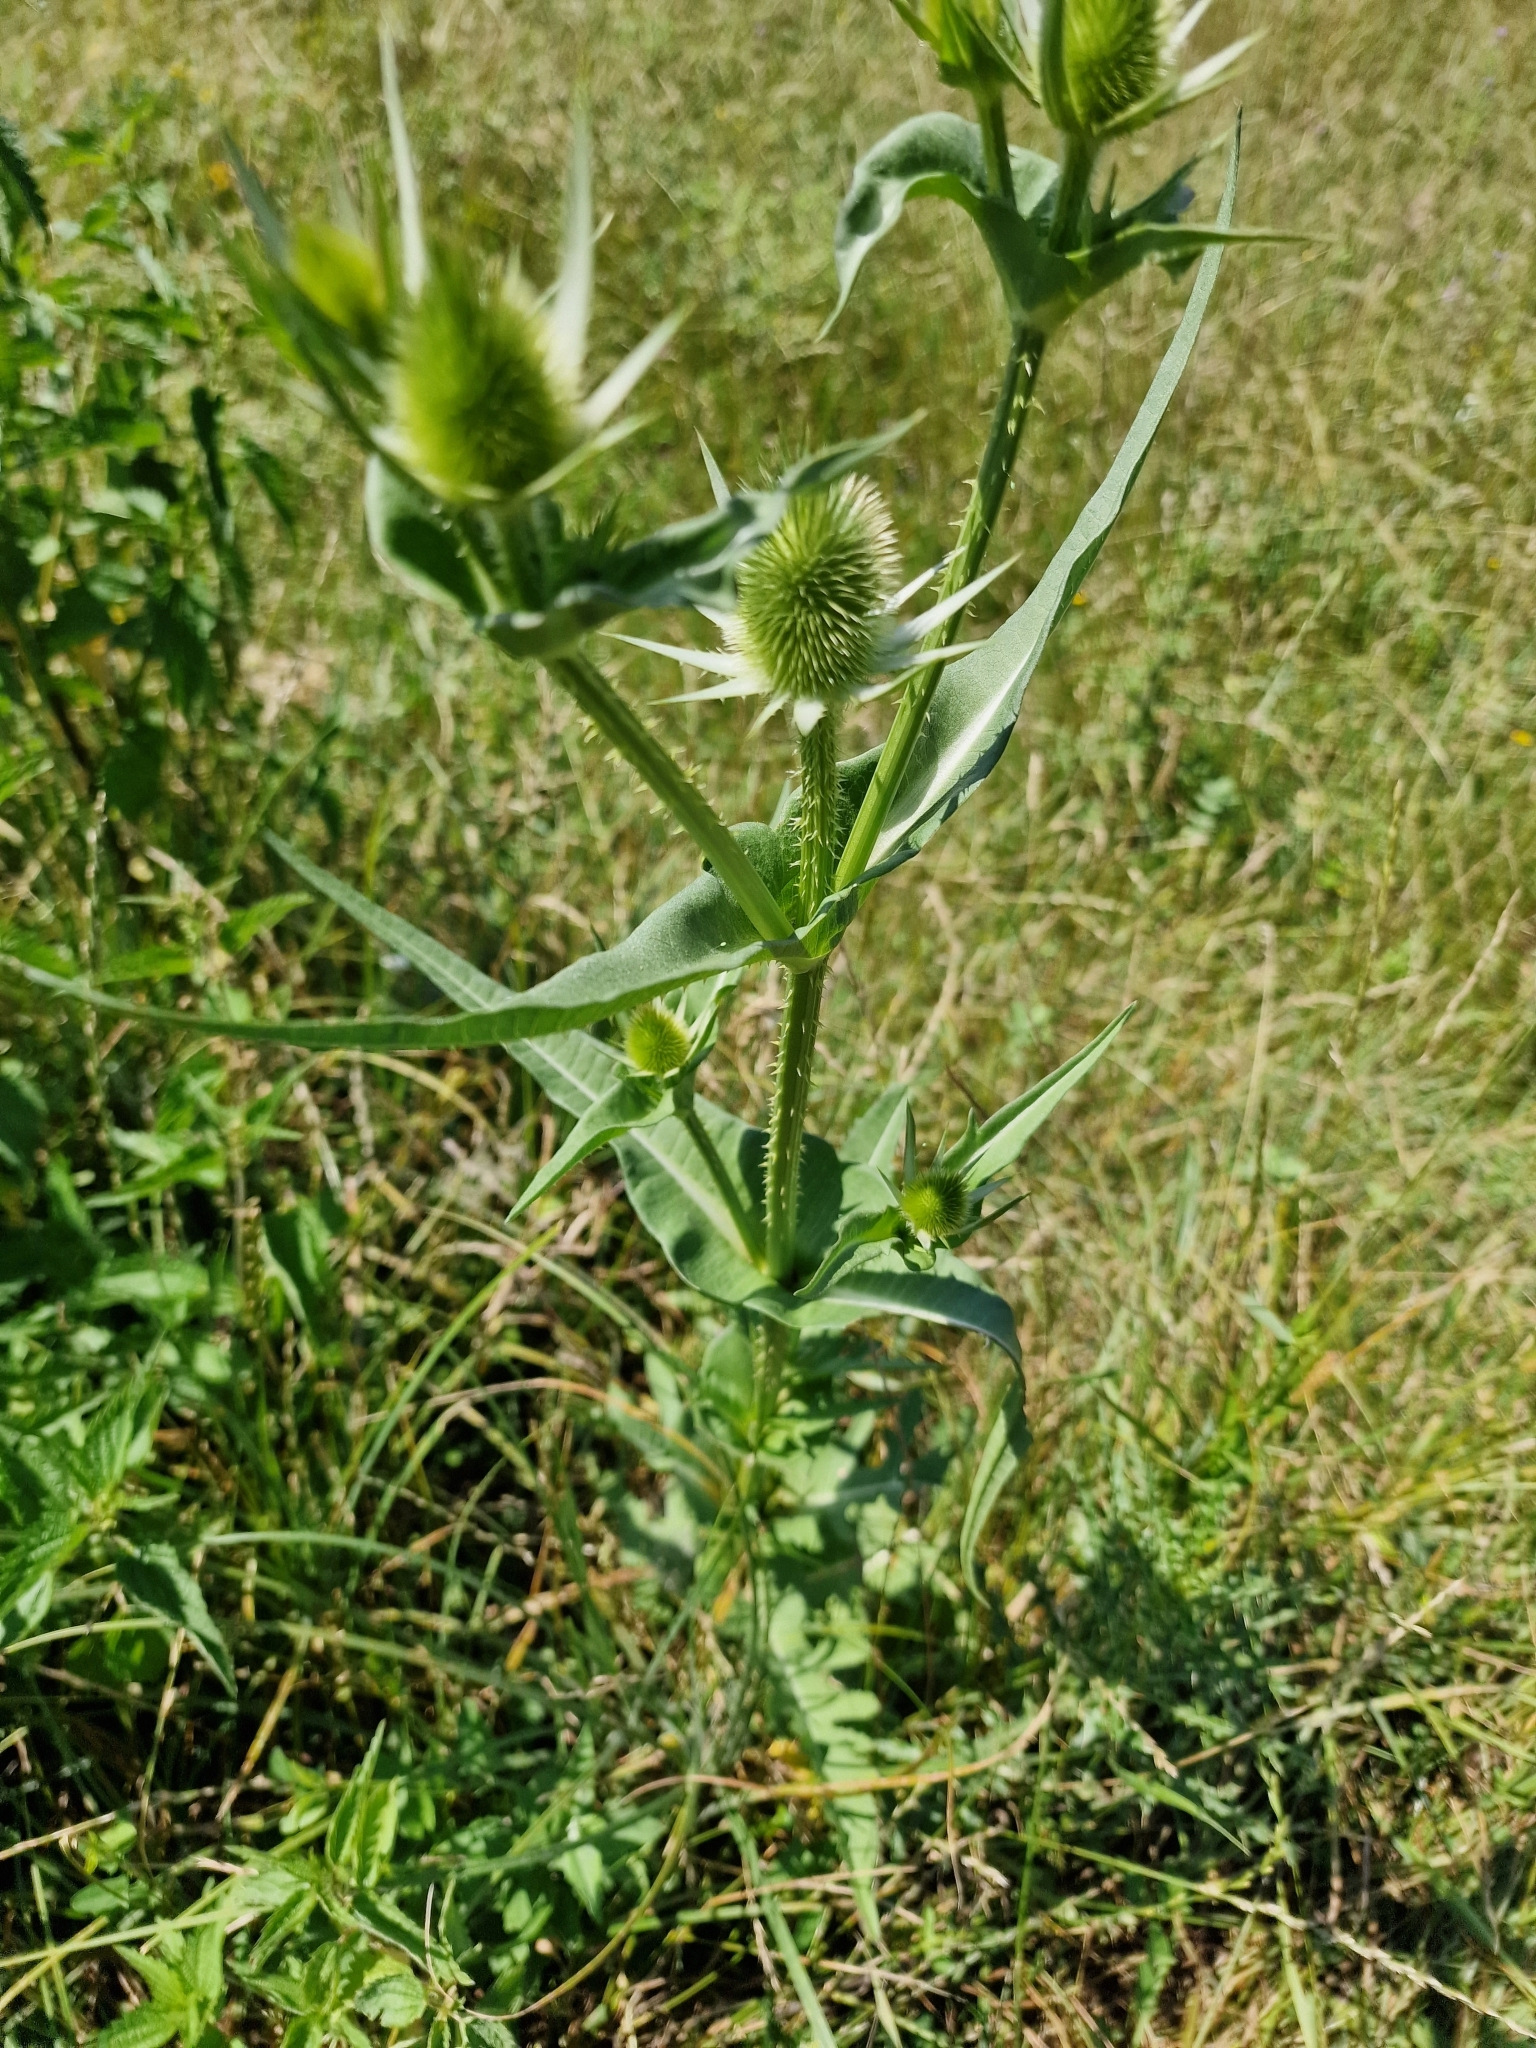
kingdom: Plantae
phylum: Tracheophyta
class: Magnoliopsida
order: Dipsacales
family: Caprifoliaceae
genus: Dipsacus
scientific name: Dipsacus laciniatus
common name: Cut-leaved teasel
